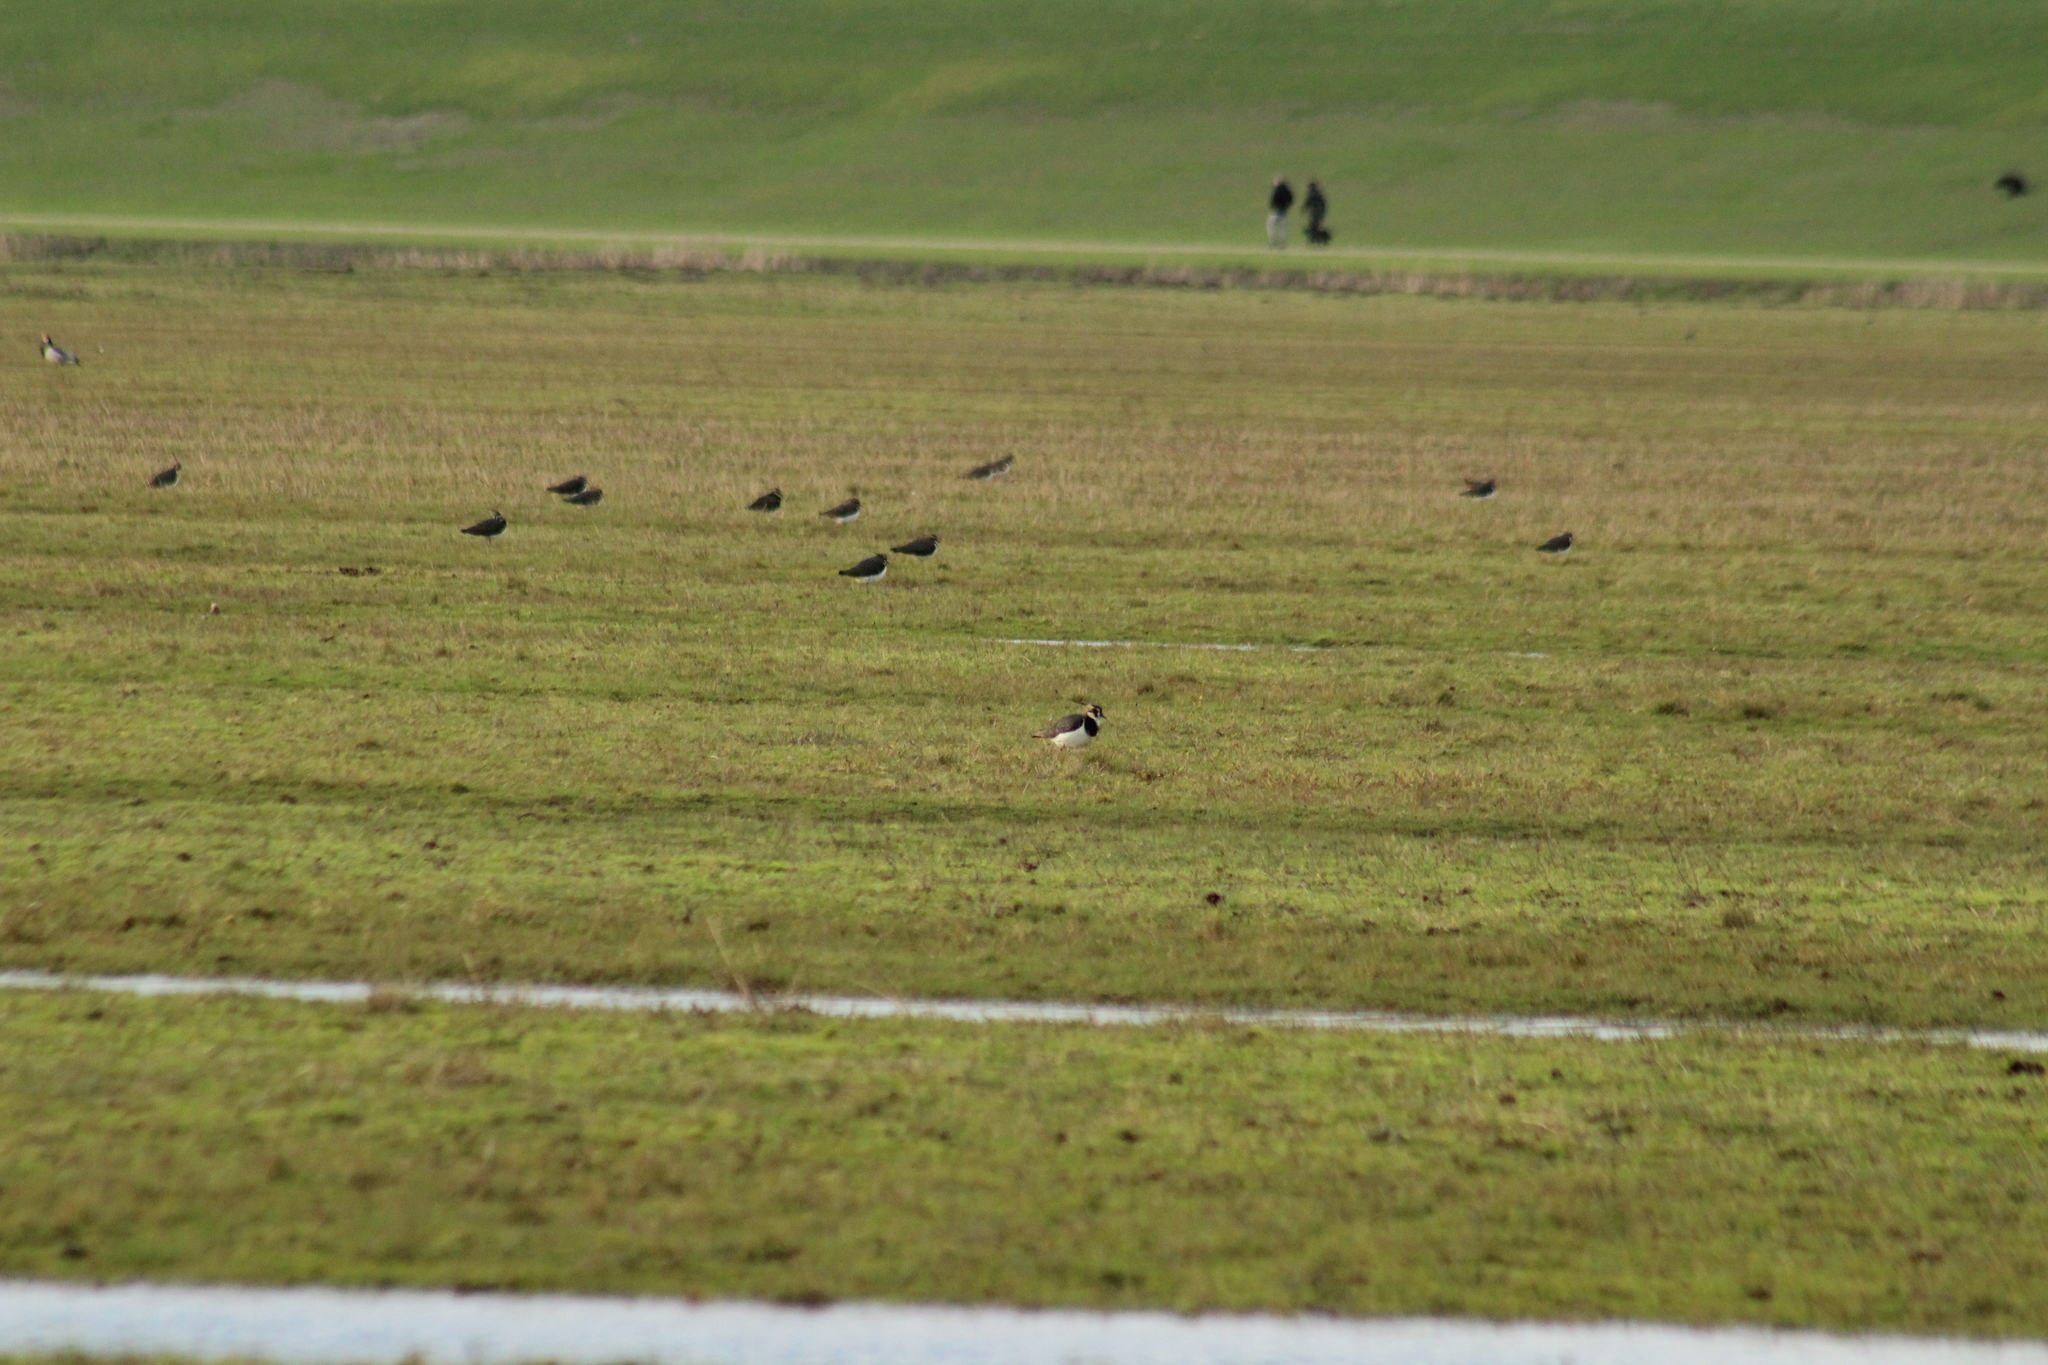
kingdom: Animalia
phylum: Chordata
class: Aves
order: Charadriiformes
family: Charadriidae
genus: Vanellus
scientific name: Vanellus vanellus
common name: Northern lapwing
